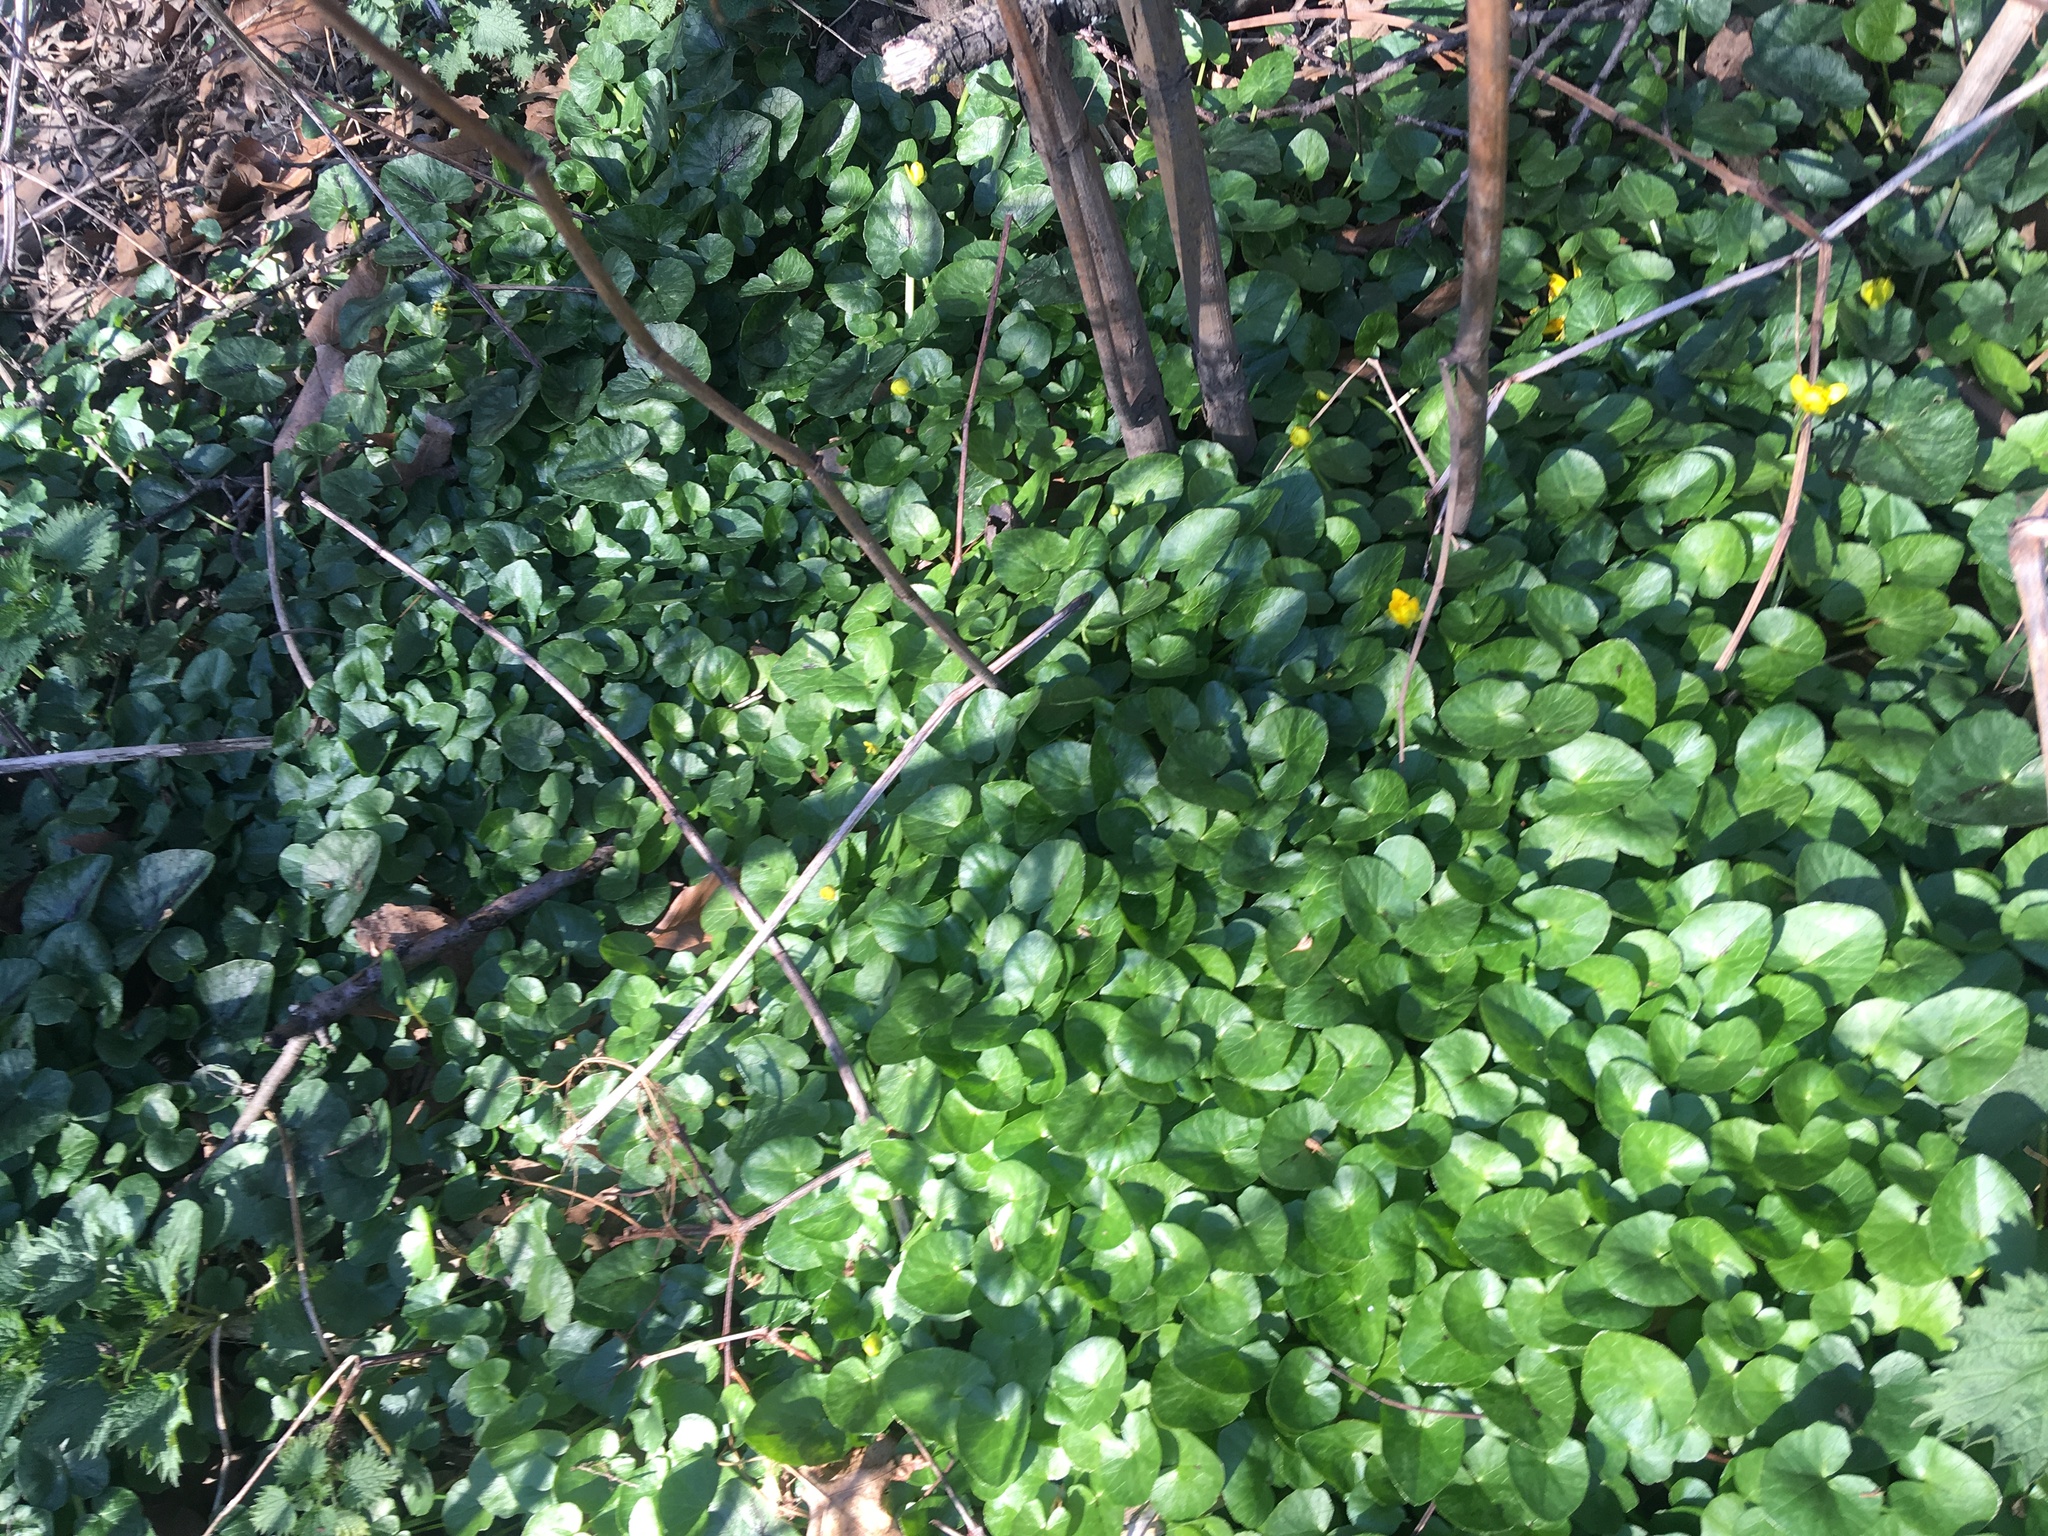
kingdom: Plantae
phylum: Tracheophyta
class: Magnoliopsida
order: Ranunculales
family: Ranunculaceae
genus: Ficaria
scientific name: Ficaria verna
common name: Lesser celandine
